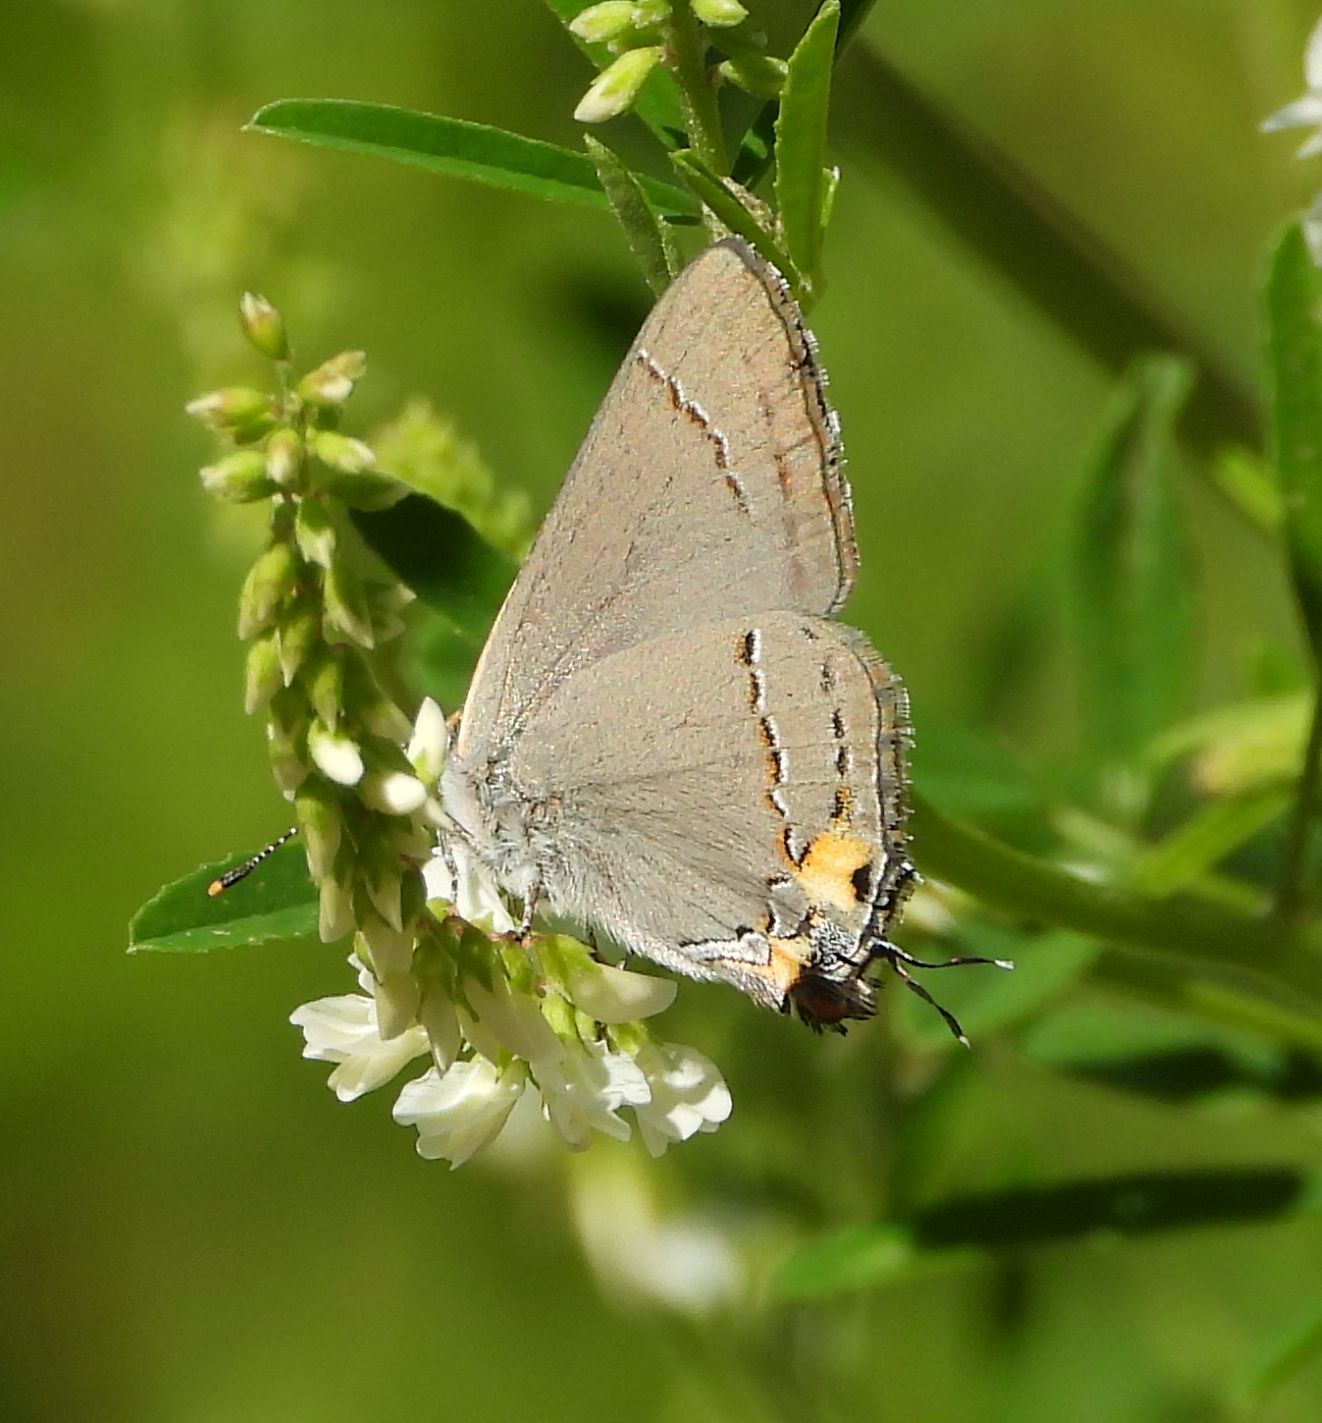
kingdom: Animalia
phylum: Arthropoda
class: Insecta
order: Lepidoptera
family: Lycaenidae
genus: Strymon
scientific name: Strymon melinus
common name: Gray hairstreak
